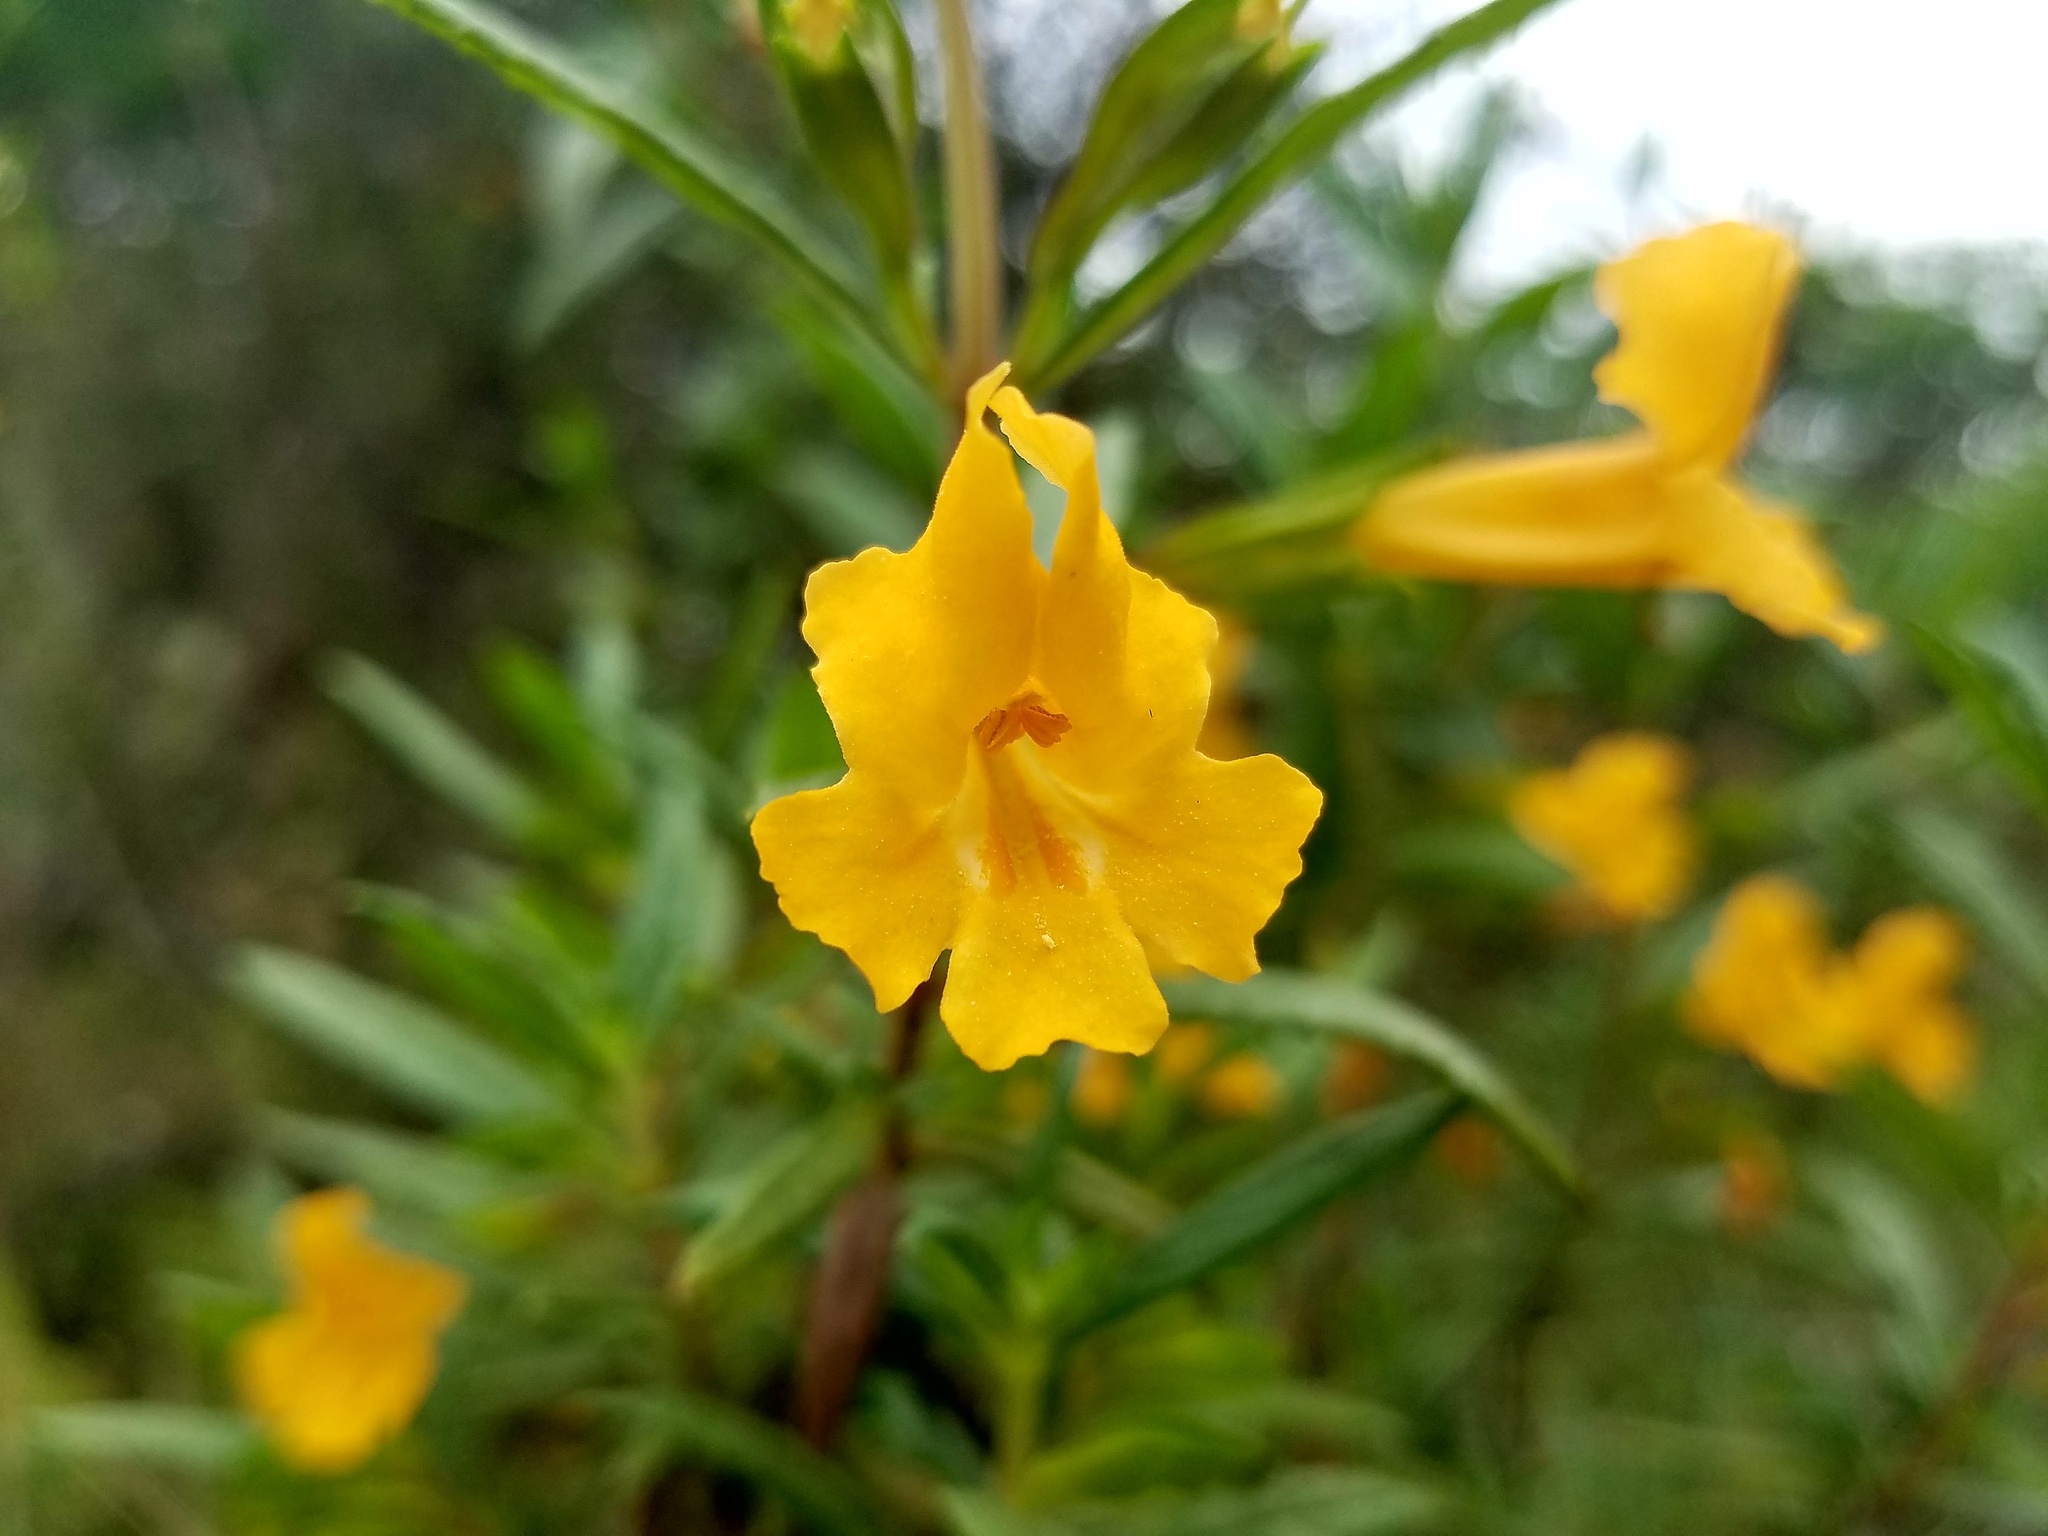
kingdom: Plantae
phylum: Tracheophyta
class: Magnoliopsida
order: Lamiales
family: Phrymaceae
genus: Diplacus
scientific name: Diplacus aurantiacus
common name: Bush monkey-flower
